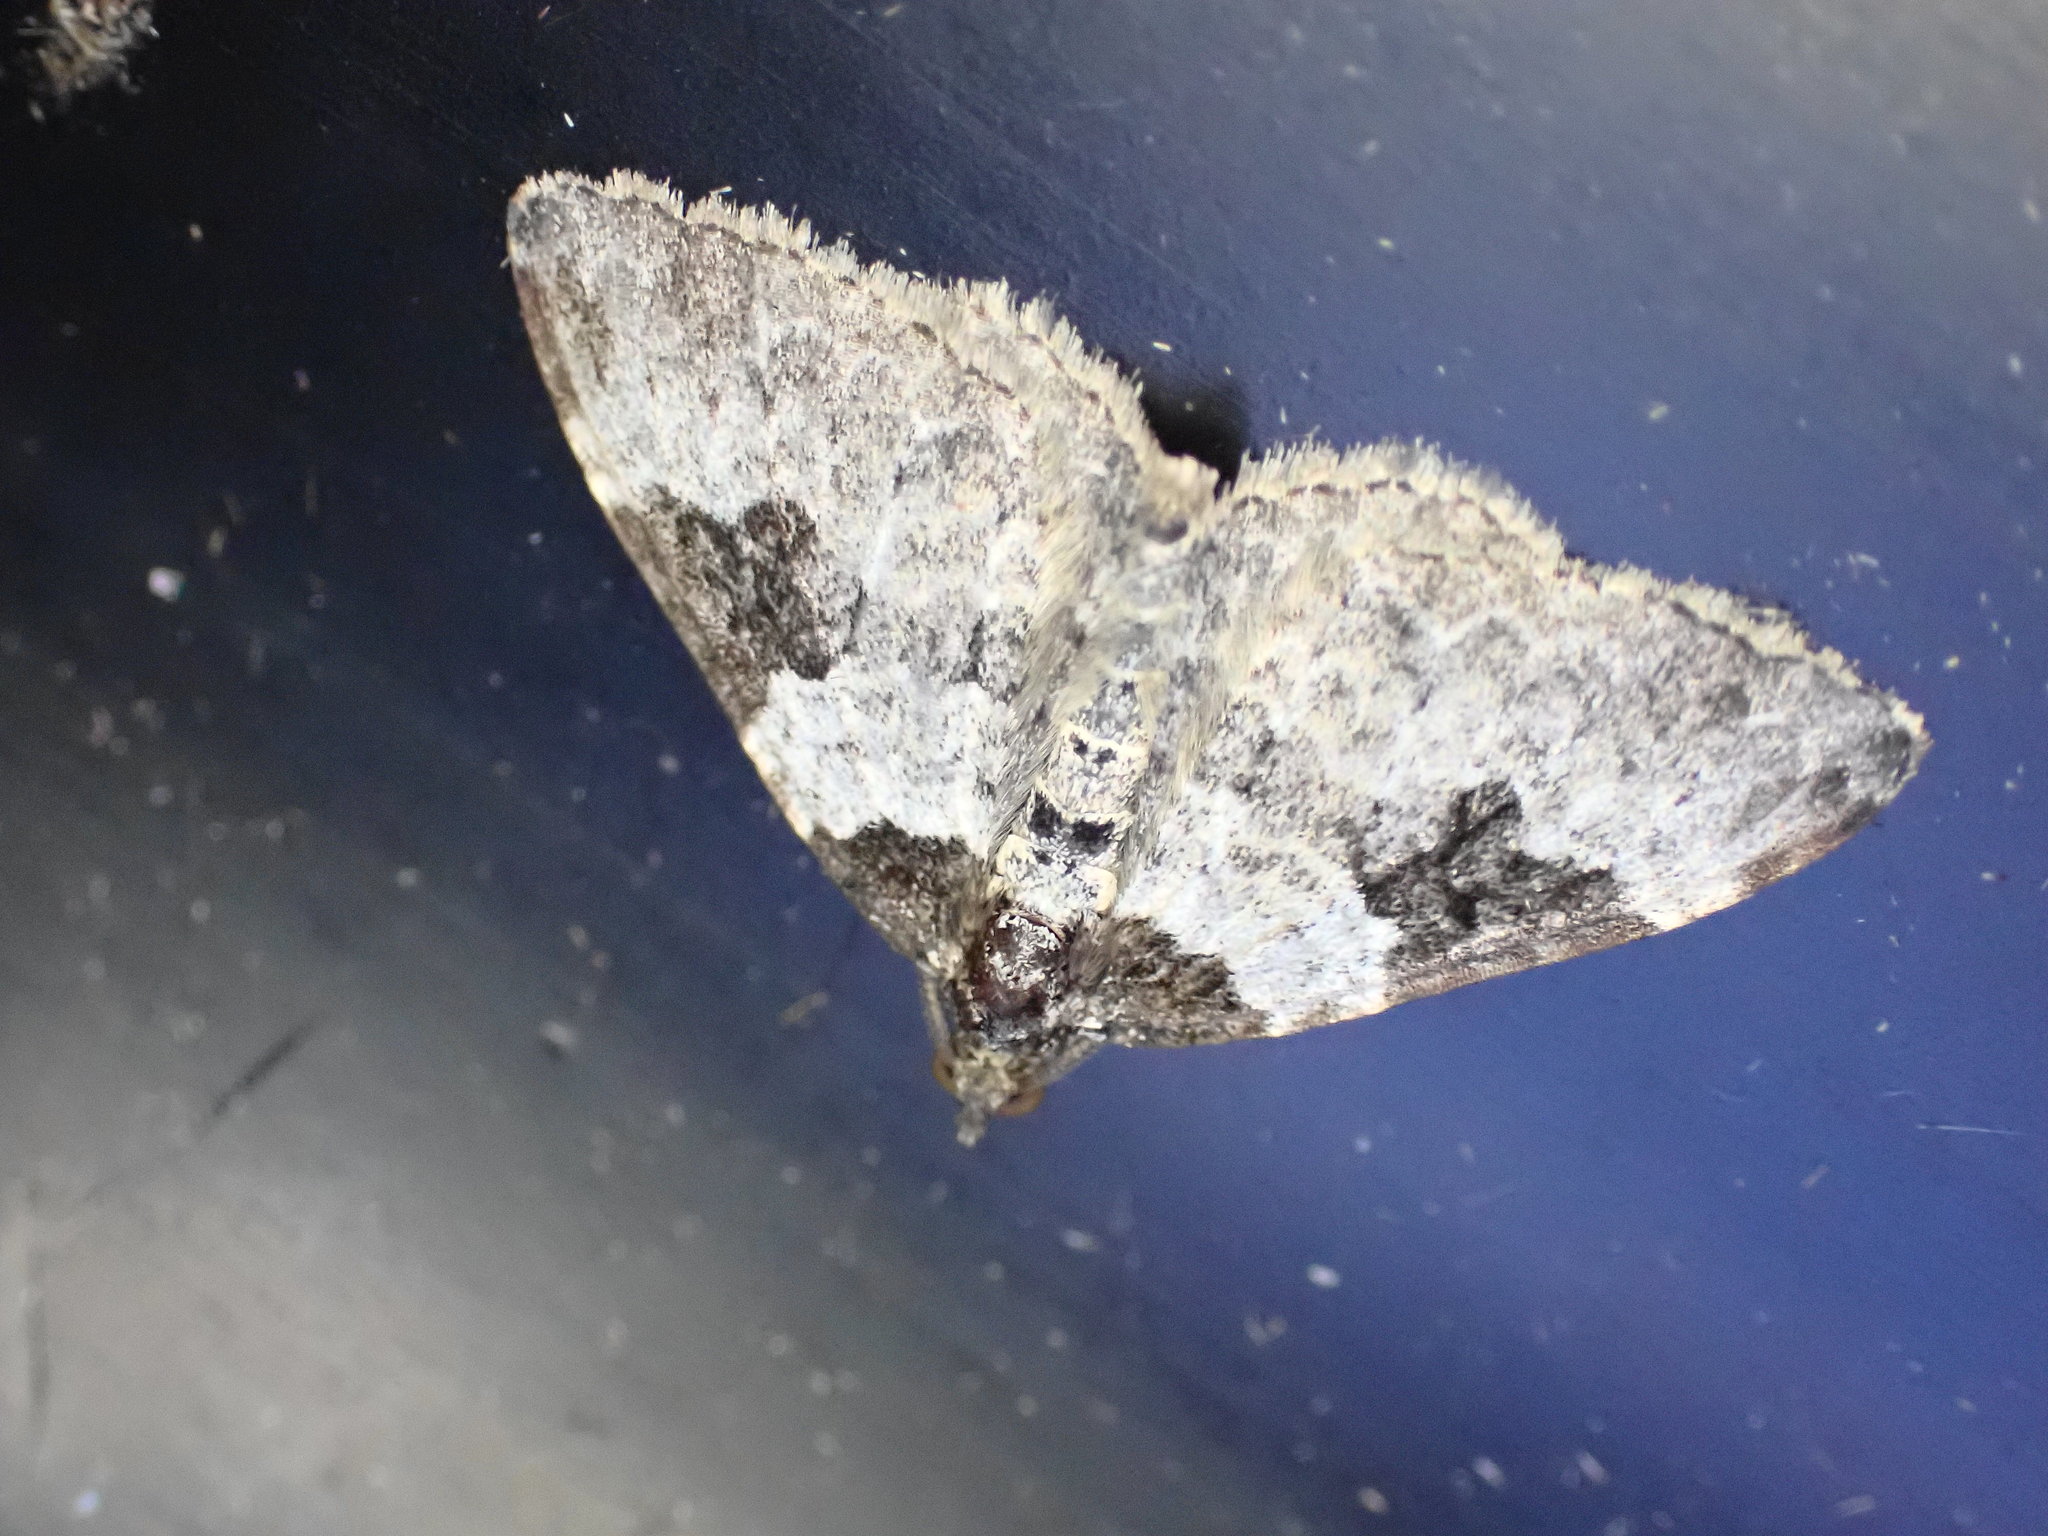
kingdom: Animalia
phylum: Arthropoda
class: Insecta
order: Lepidoptera
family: Geometridae
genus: Xanthorhoe
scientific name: Xanthorhoe fluctuata
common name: Garden carpet
